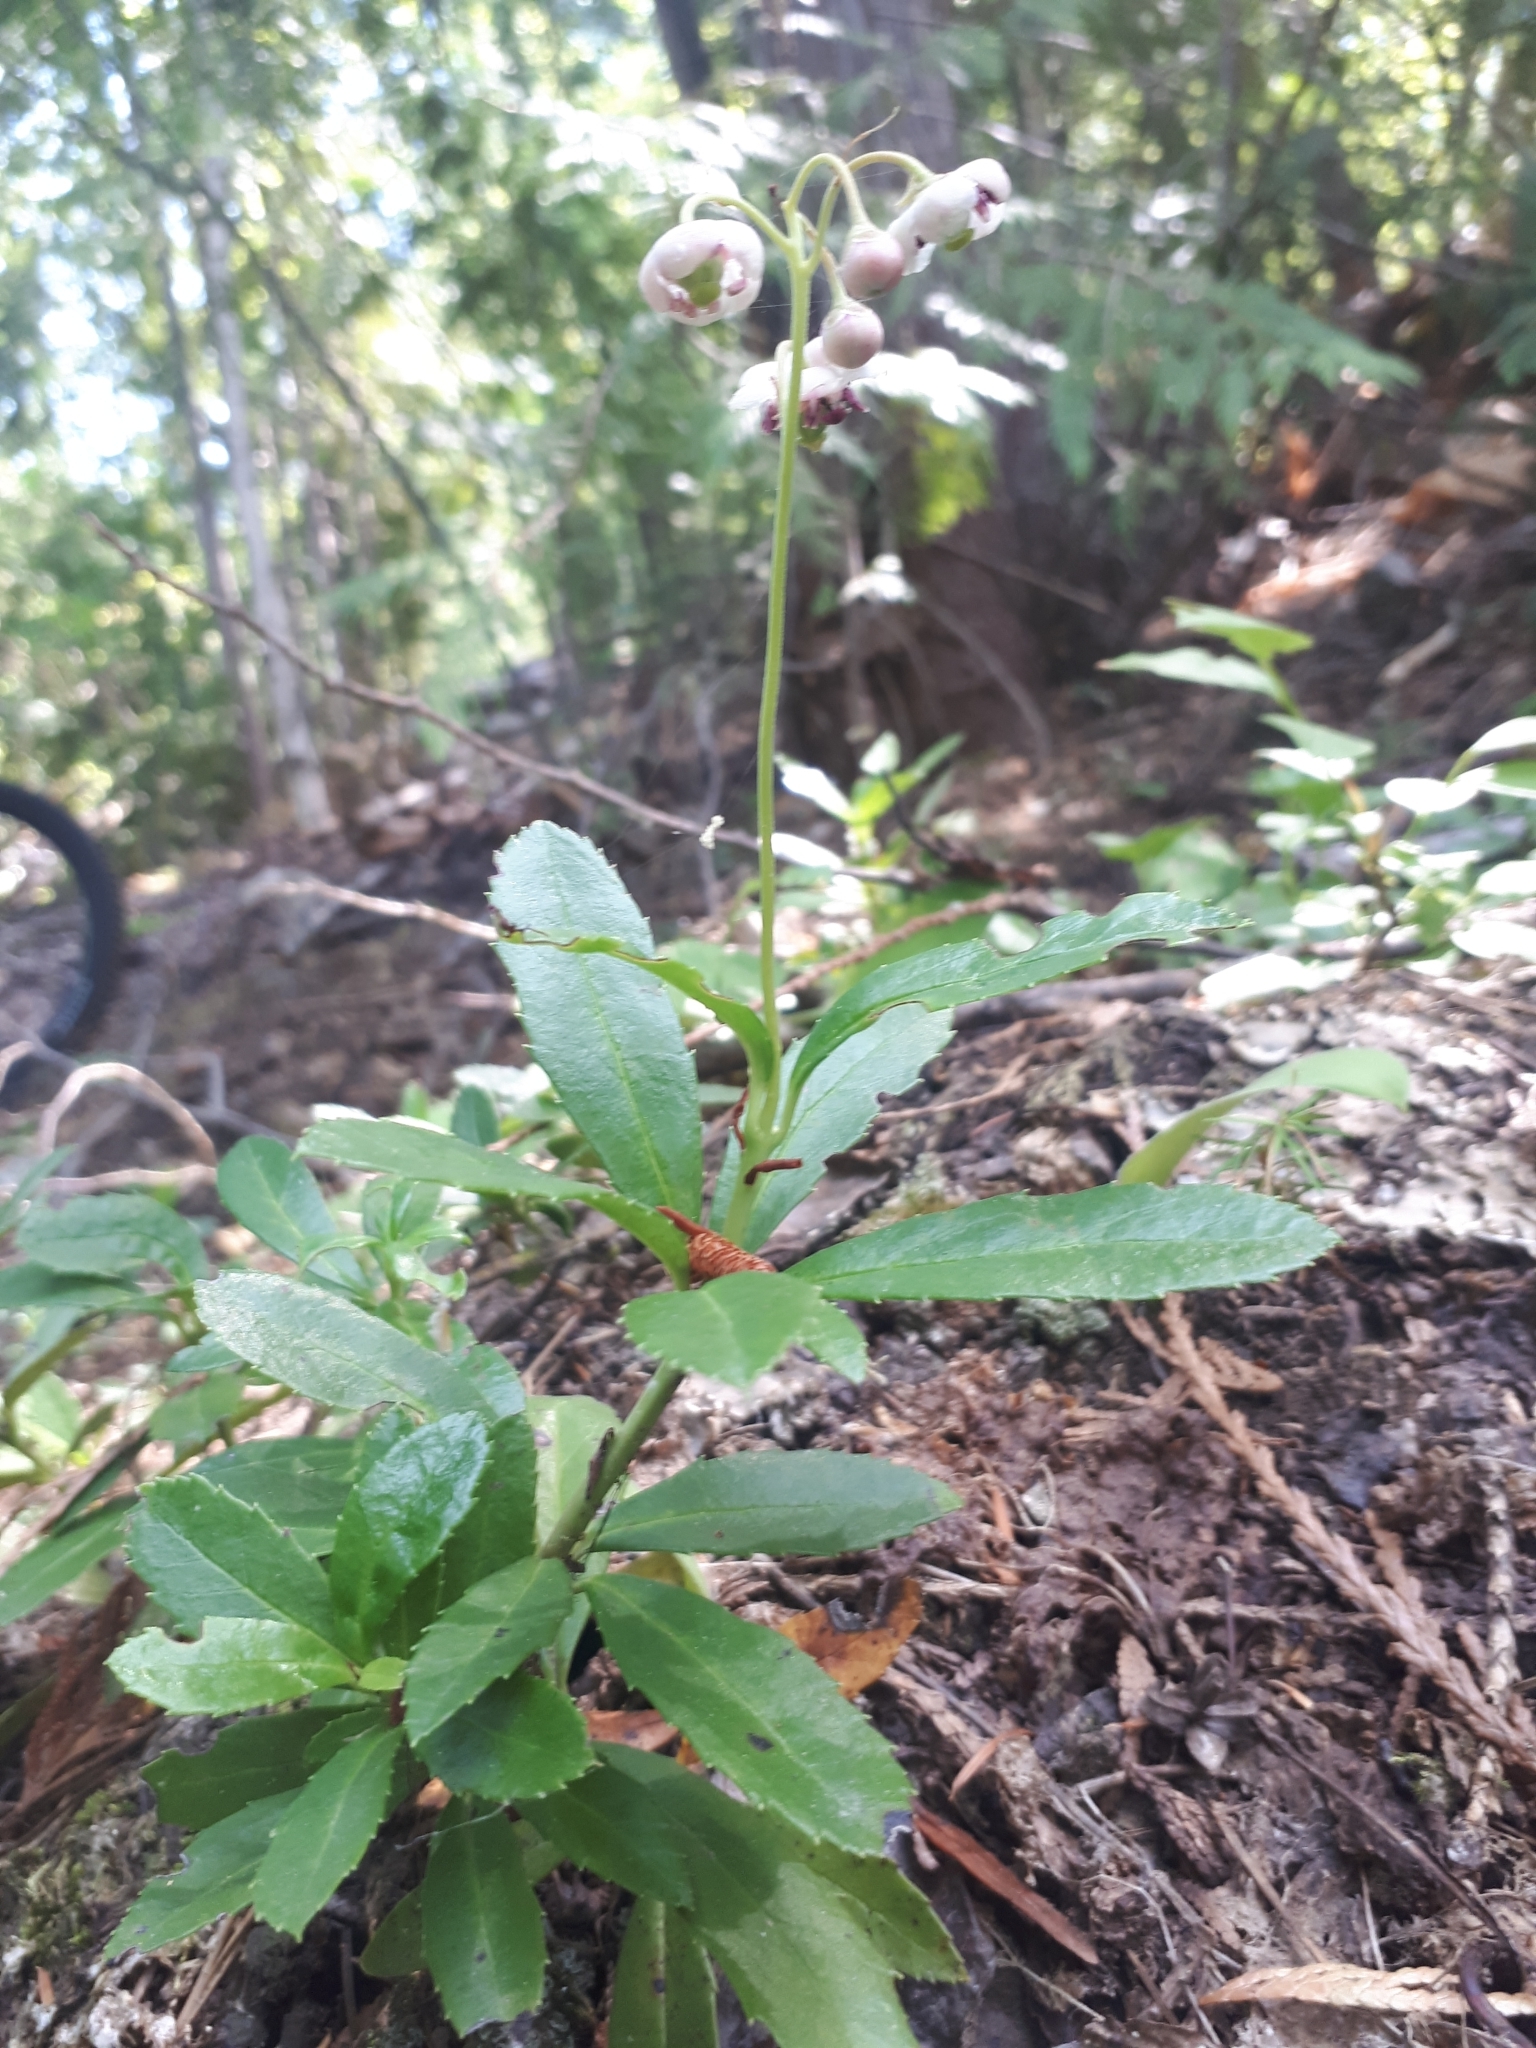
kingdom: Plantae
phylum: Tracheophyta
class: Magnoliopsida
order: Ericales
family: Ericaceae
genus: Chimaphila
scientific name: Chimaphila umbellata
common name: Pipsissewa
